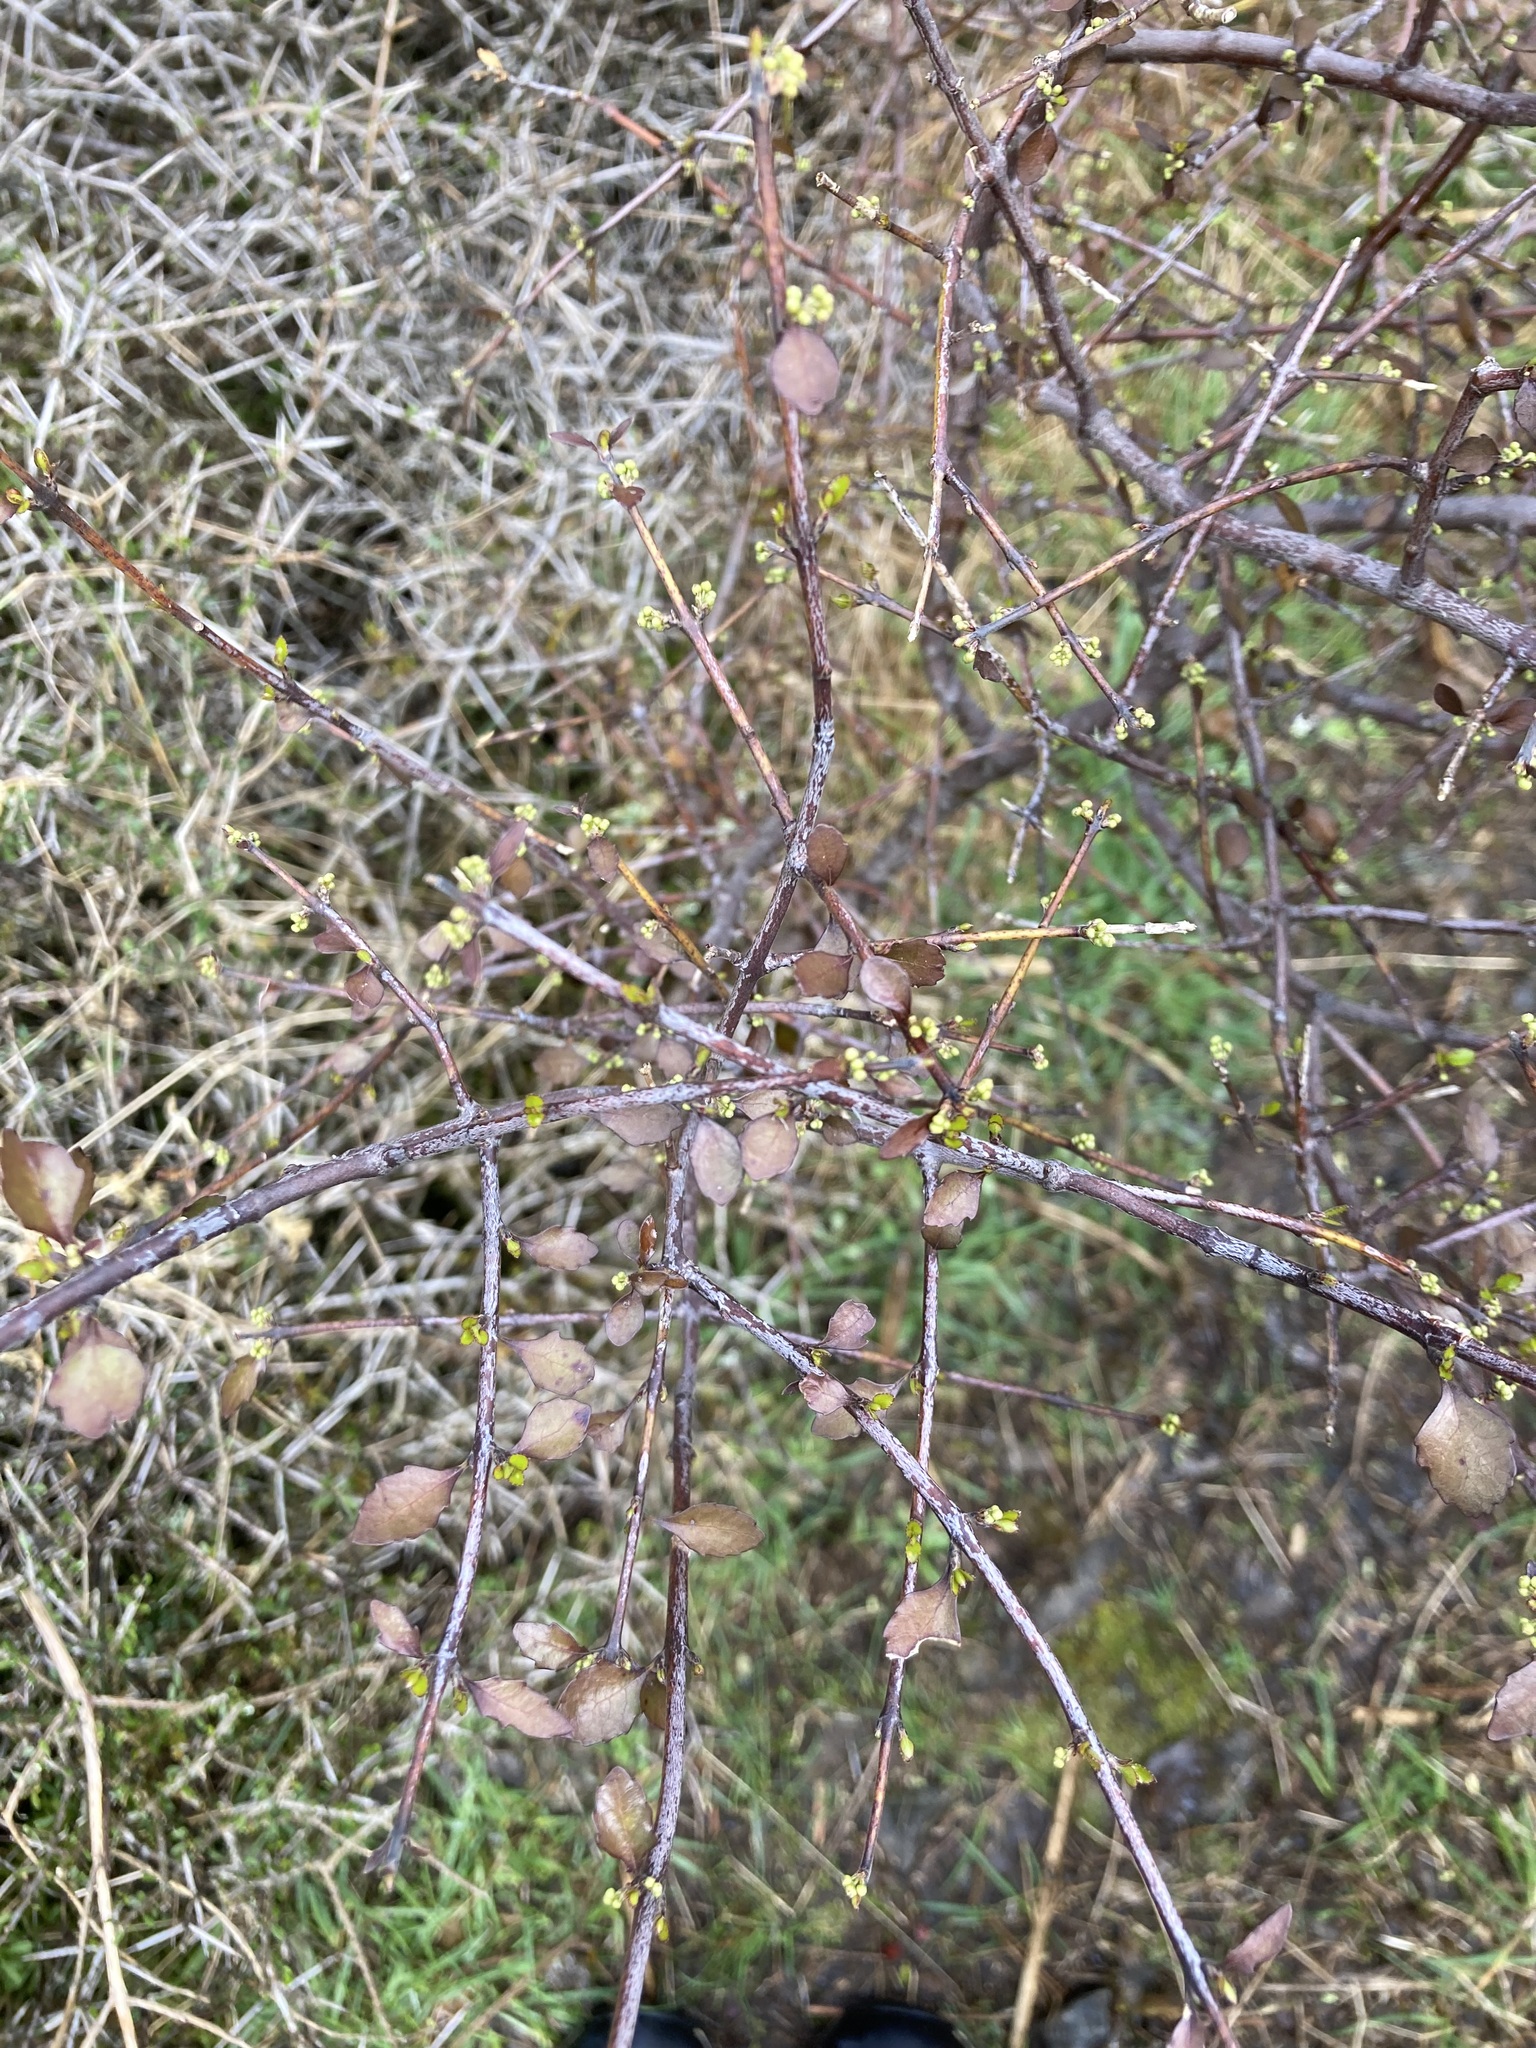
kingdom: Plantae
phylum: Tracheophyta
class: Magnoliopsida
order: Oxalidales
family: Elaeocarpaceae
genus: Aristotelia
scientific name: Aristotelia fruticosa
